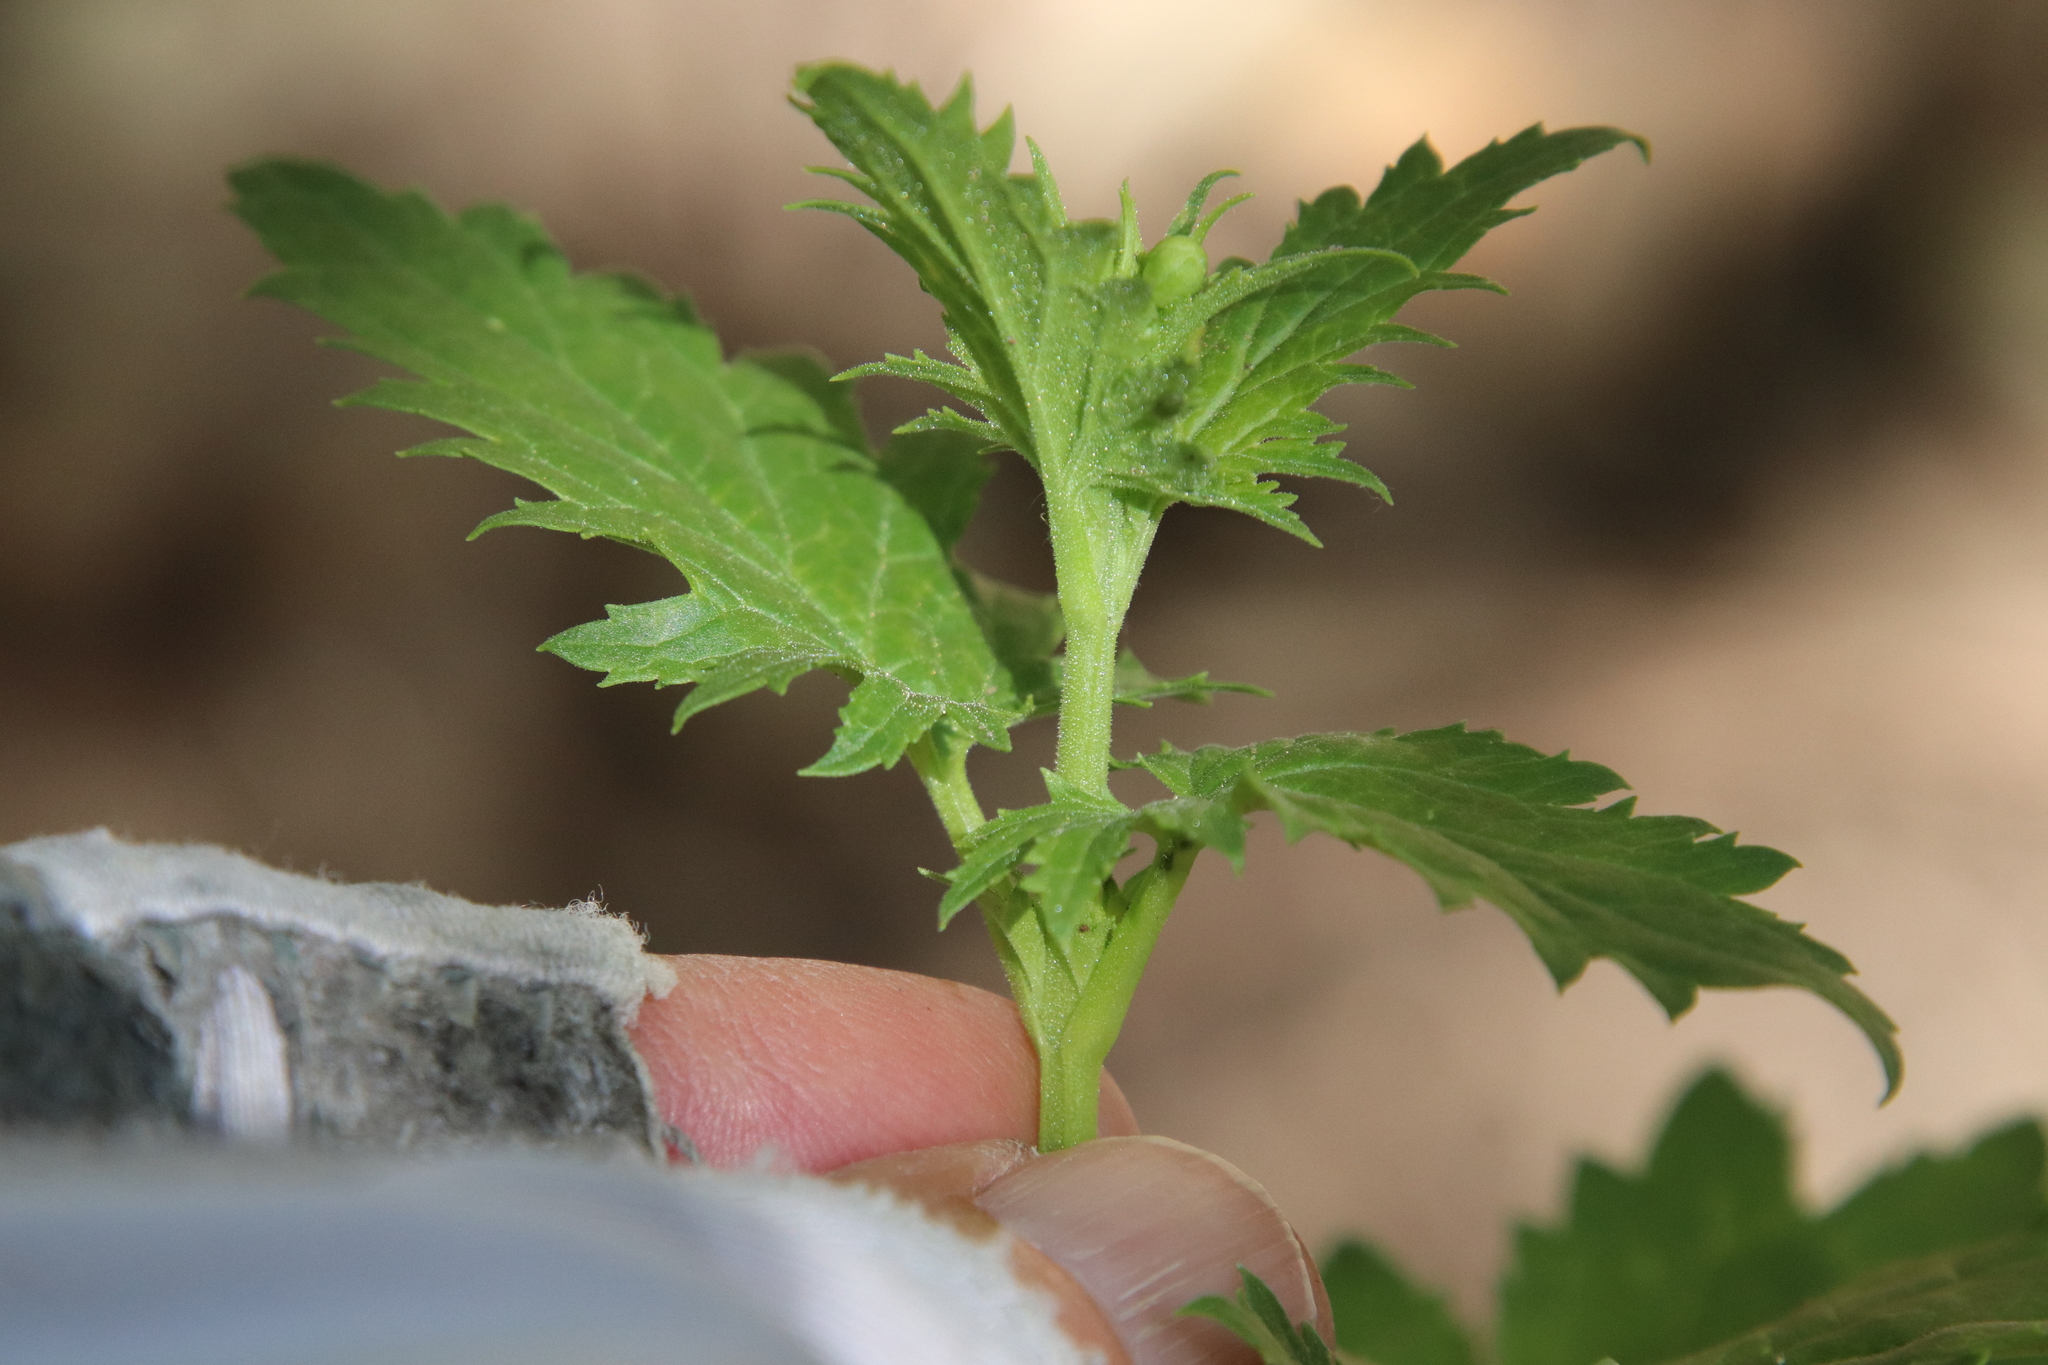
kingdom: Plantae
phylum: Tracheophyta
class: Magnoliopsida
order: Lamiales
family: Scrophulariaceae
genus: Scrophularia
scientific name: Scrophularia californica
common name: California figwort
